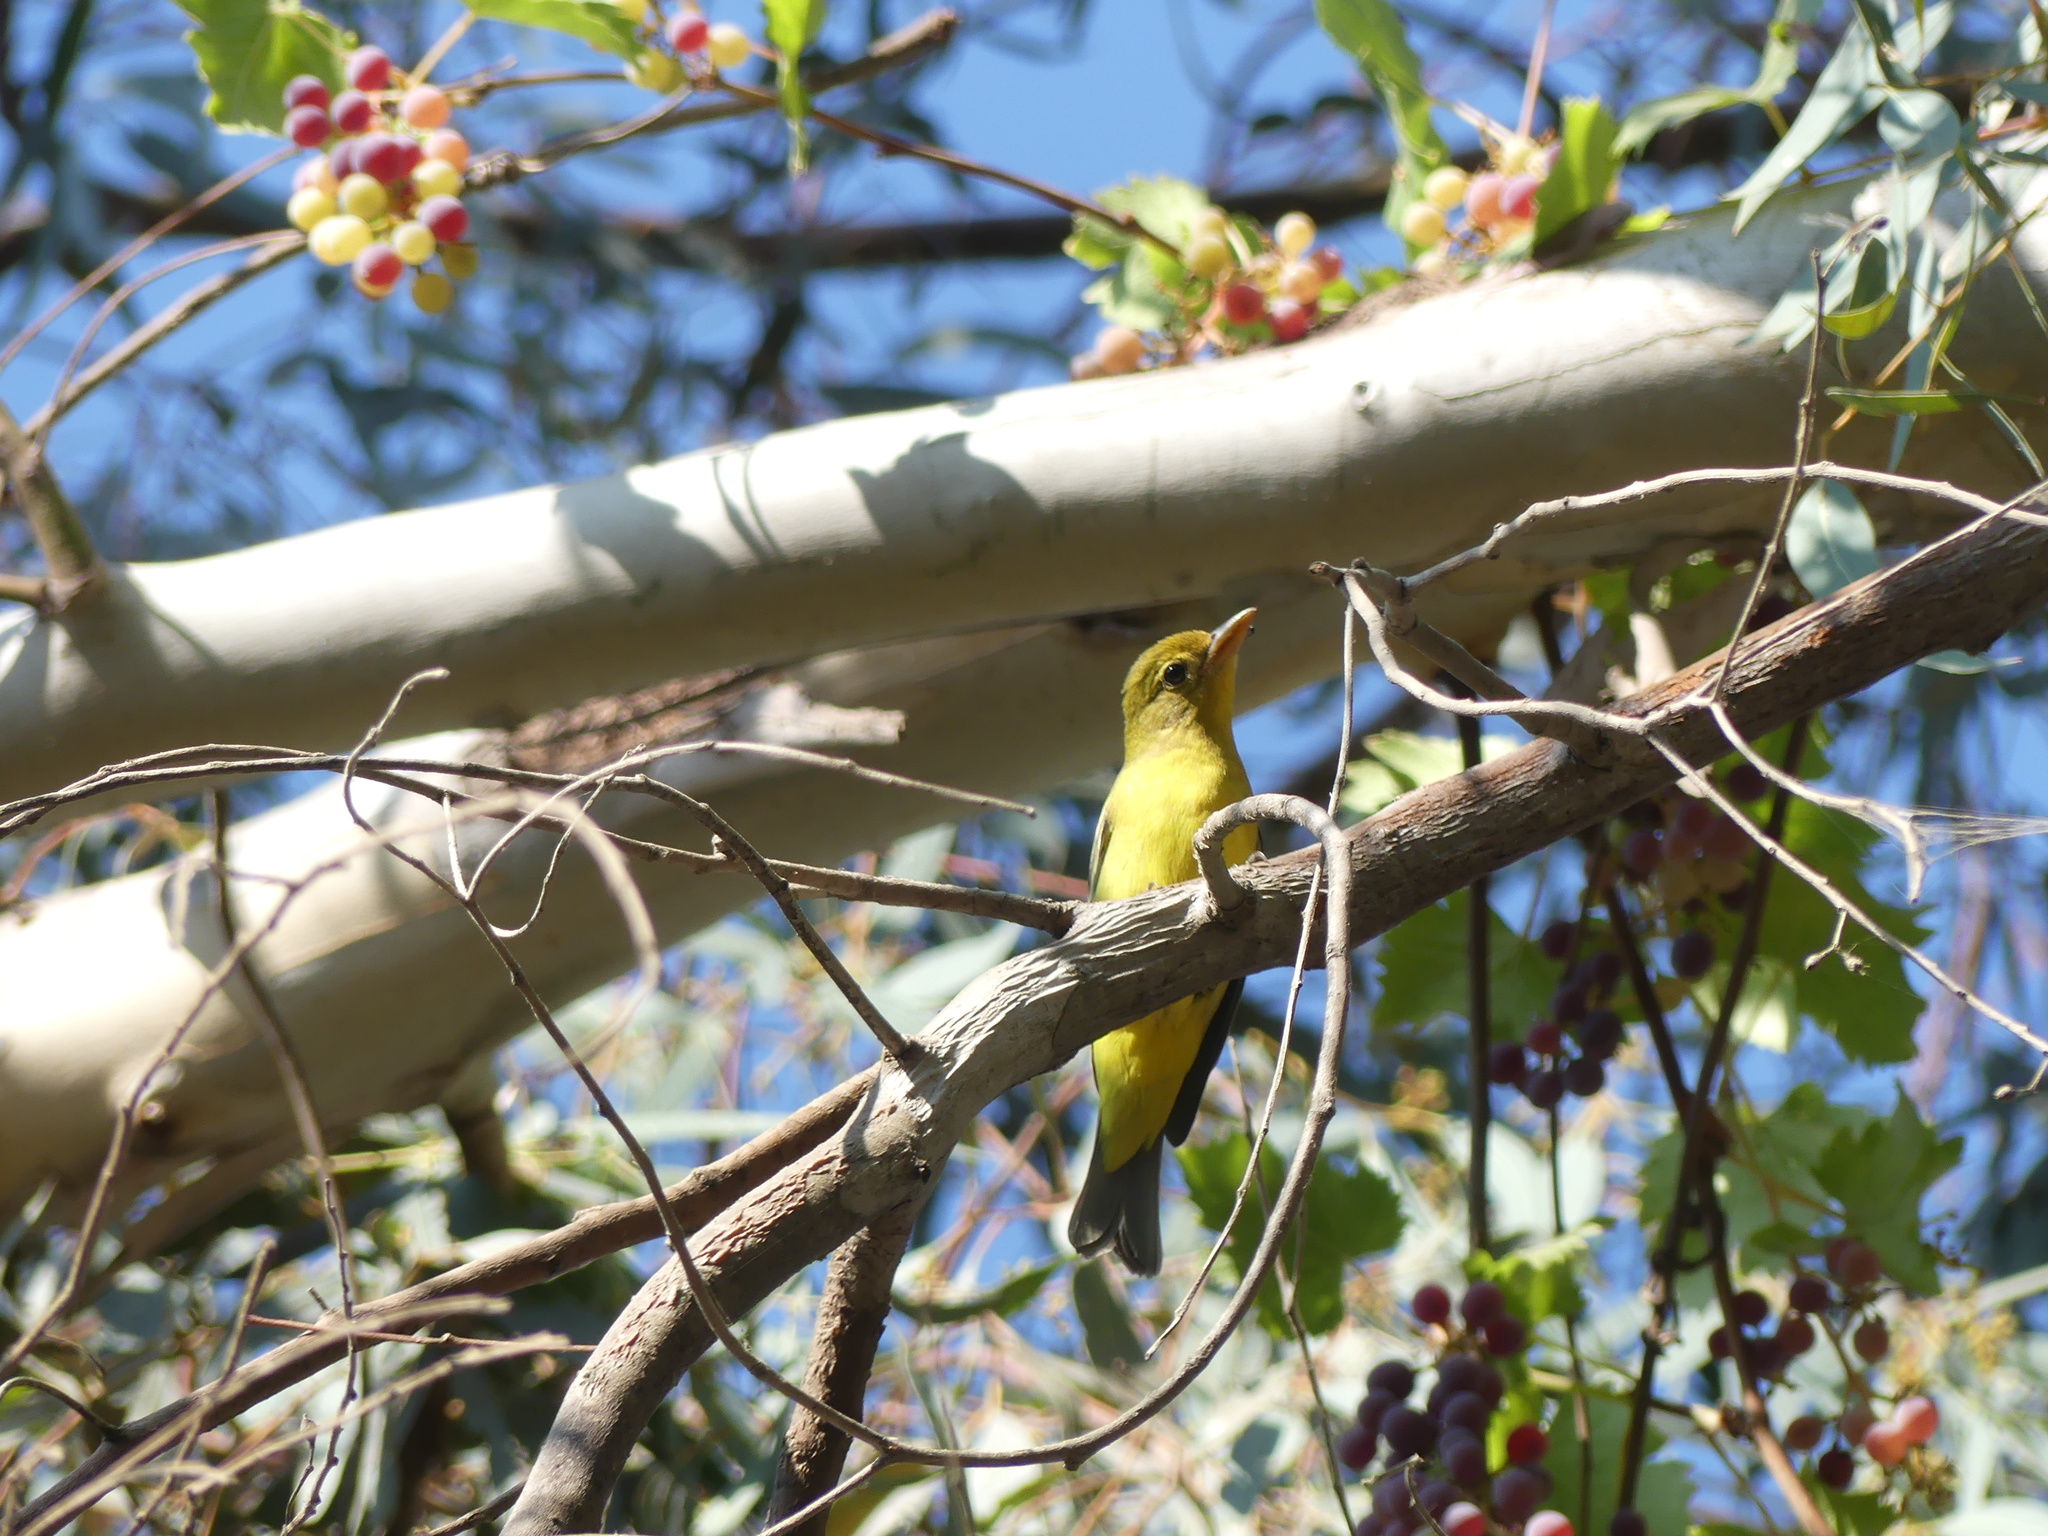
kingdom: Animalia
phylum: Chordata
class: Aves
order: Passeriformes
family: Cardinalidae
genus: Piranga
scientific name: Piranga ludoviciana
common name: Western tanager
